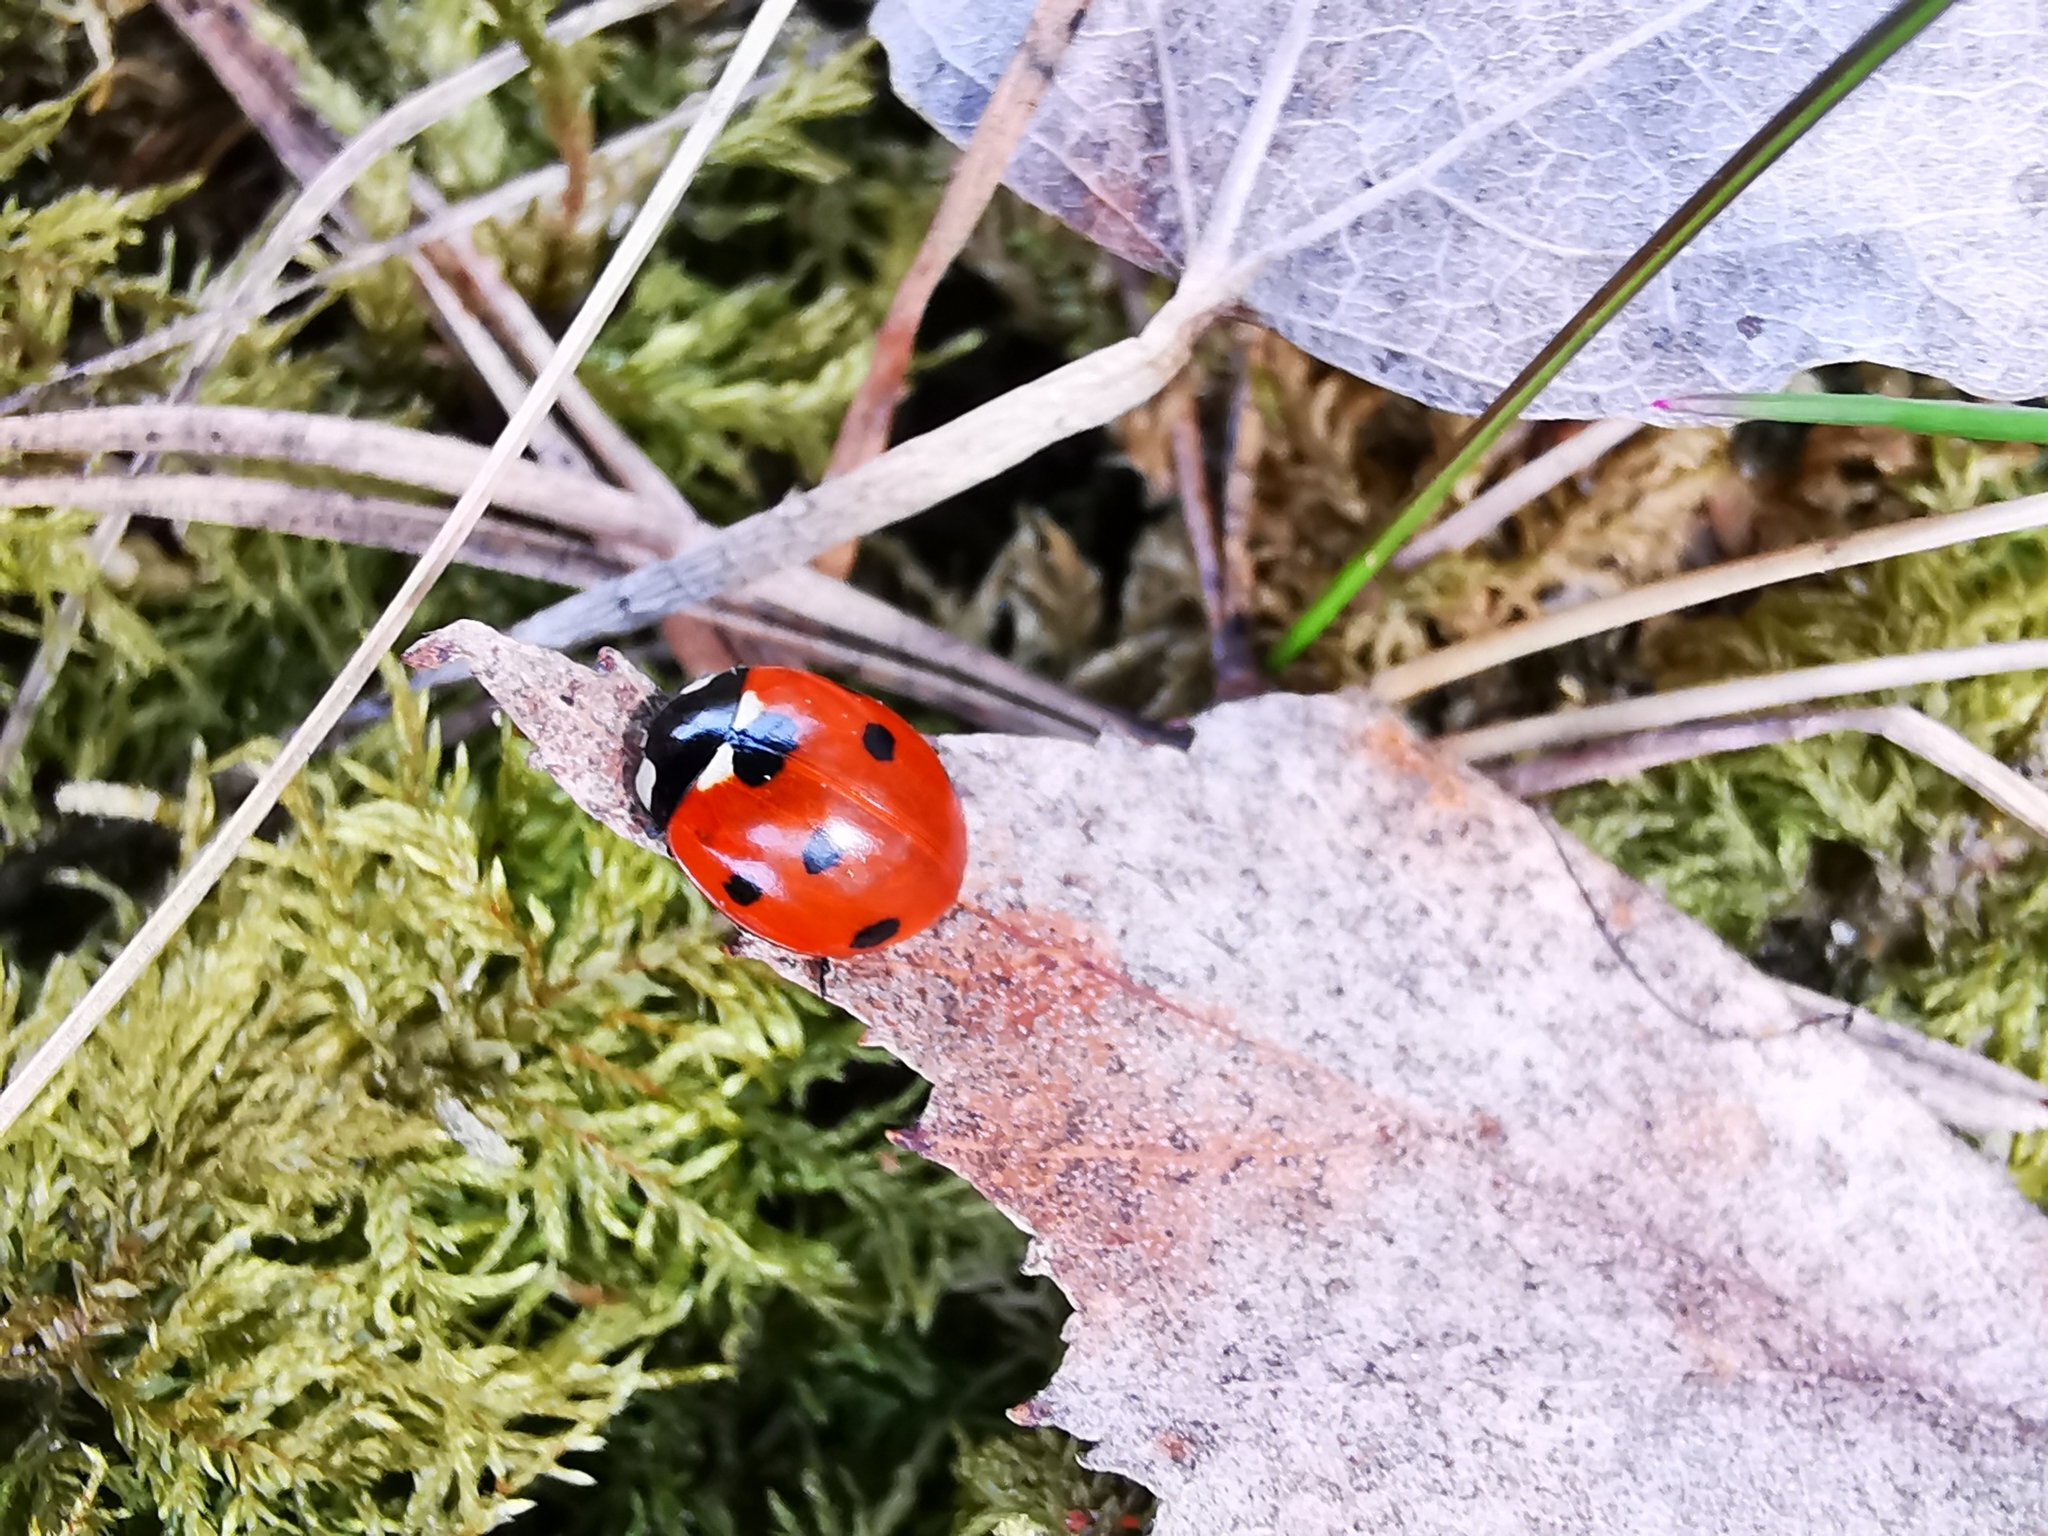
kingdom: Animalia
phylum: Arthropoda
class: Insecta
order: Coleoptera
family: Coccinellidae
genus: Coccinella
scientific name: Coccinella septempunctata
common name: Sevenspotted lady beetle
